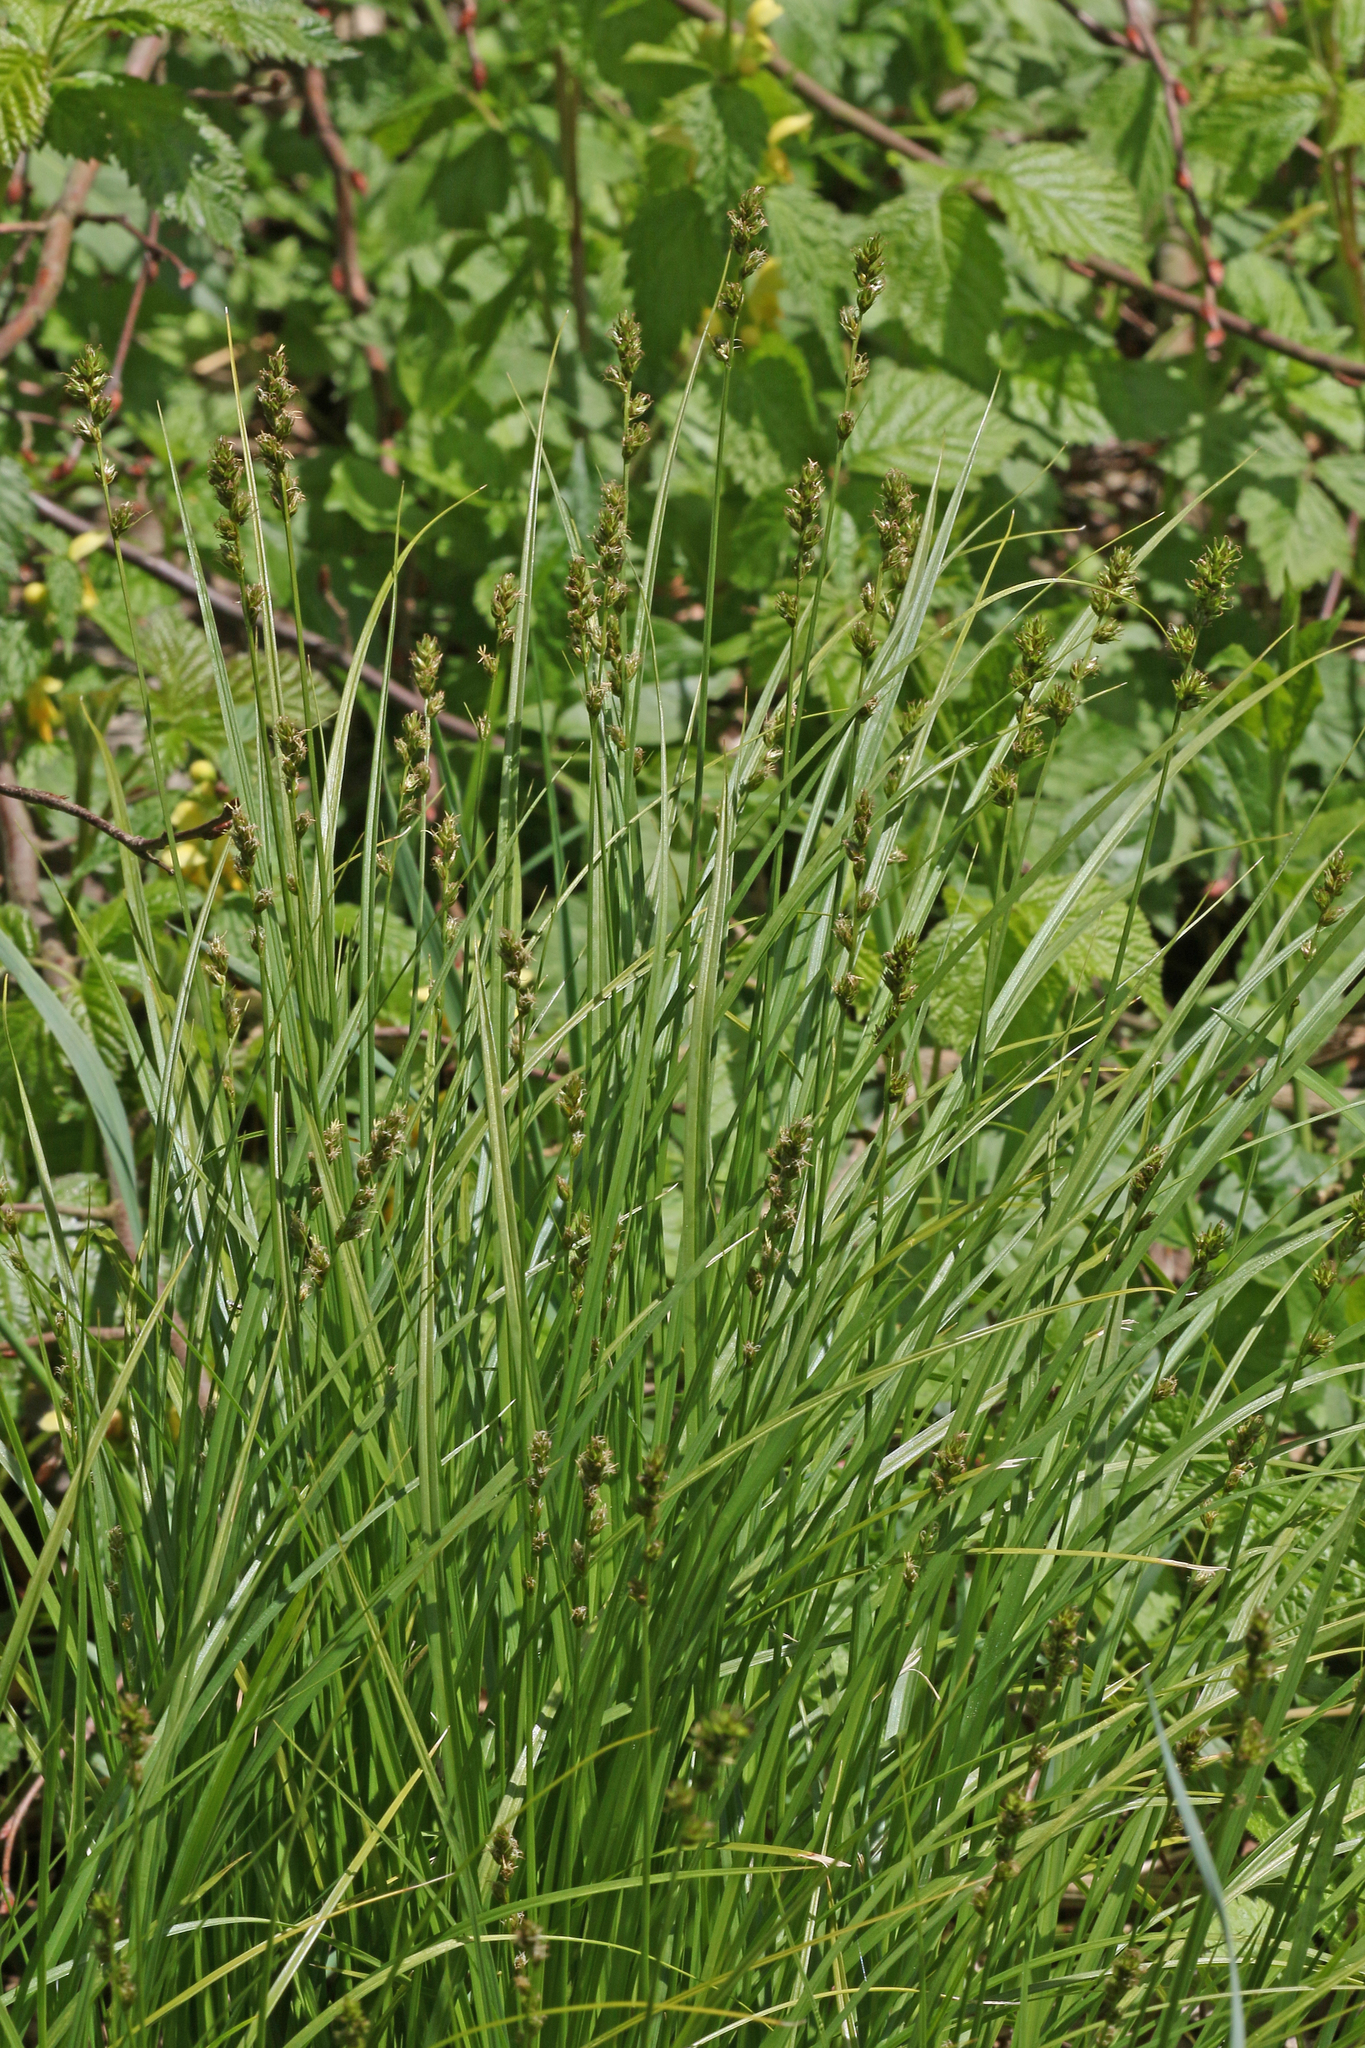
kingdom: Plantae
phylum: Tracheophyta
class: Liliopsida
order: Poales
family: Cyperaceae
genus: Carex
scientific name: Carex muricata
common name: Rough sedge
